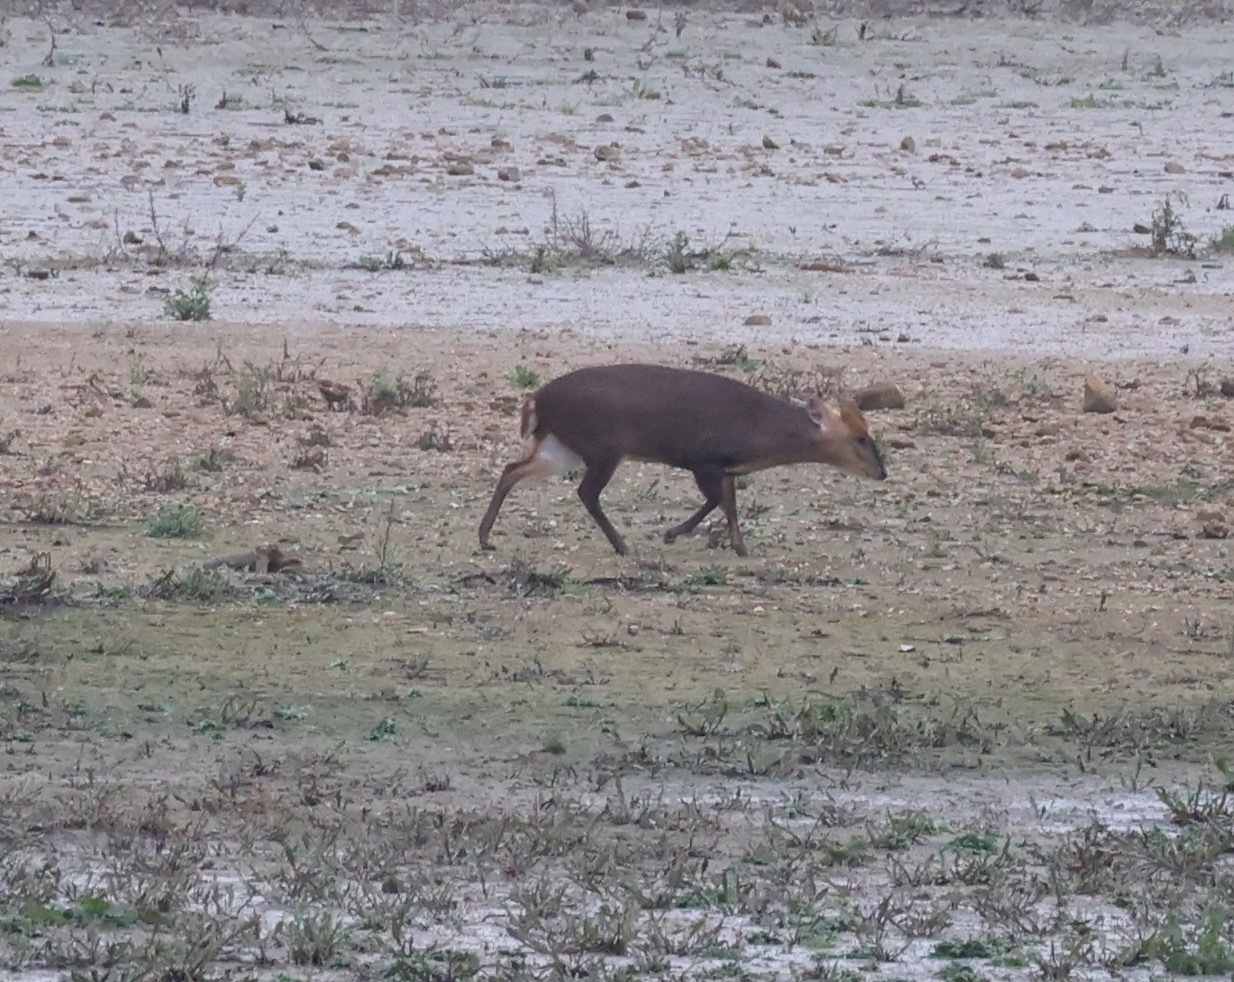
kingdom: Animalia
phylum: Chordata
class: Mammalia
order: Artiodactyla
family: Cervidae
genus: Muntiacus
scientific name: Muntiacus reevesi
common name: Reeves' muntjac
